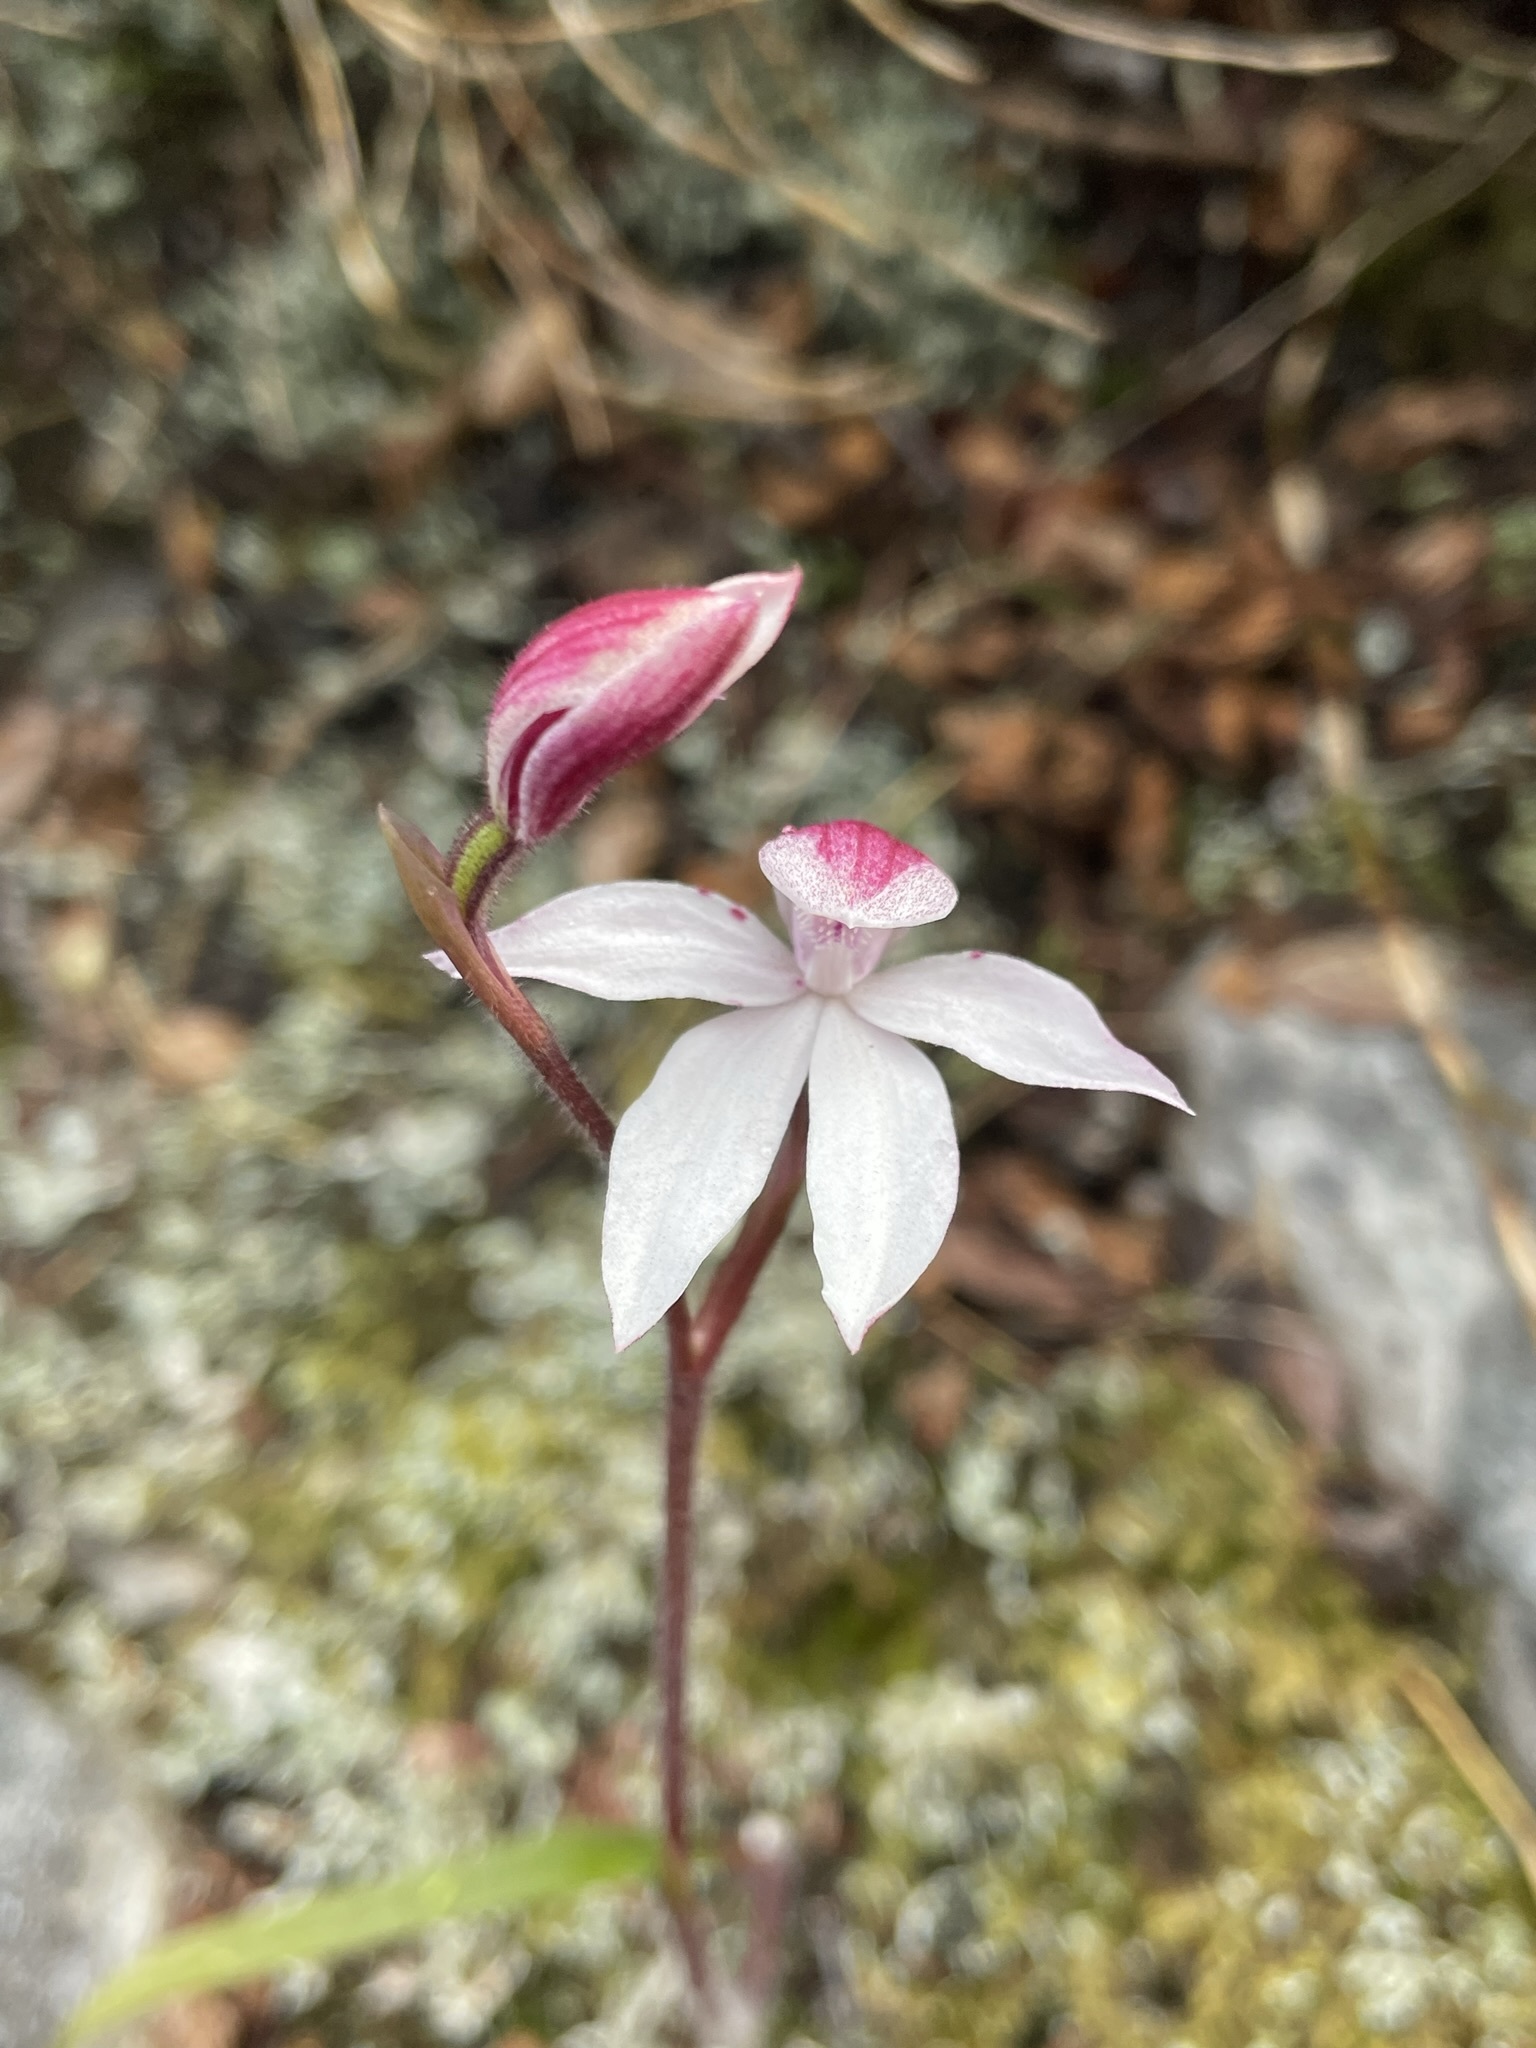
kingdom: Plantae
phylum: Tracheophyta
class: Liliopsida
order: Asparagales
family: Orchidaceae
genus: Caladenia
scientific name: Caladenia alpina
